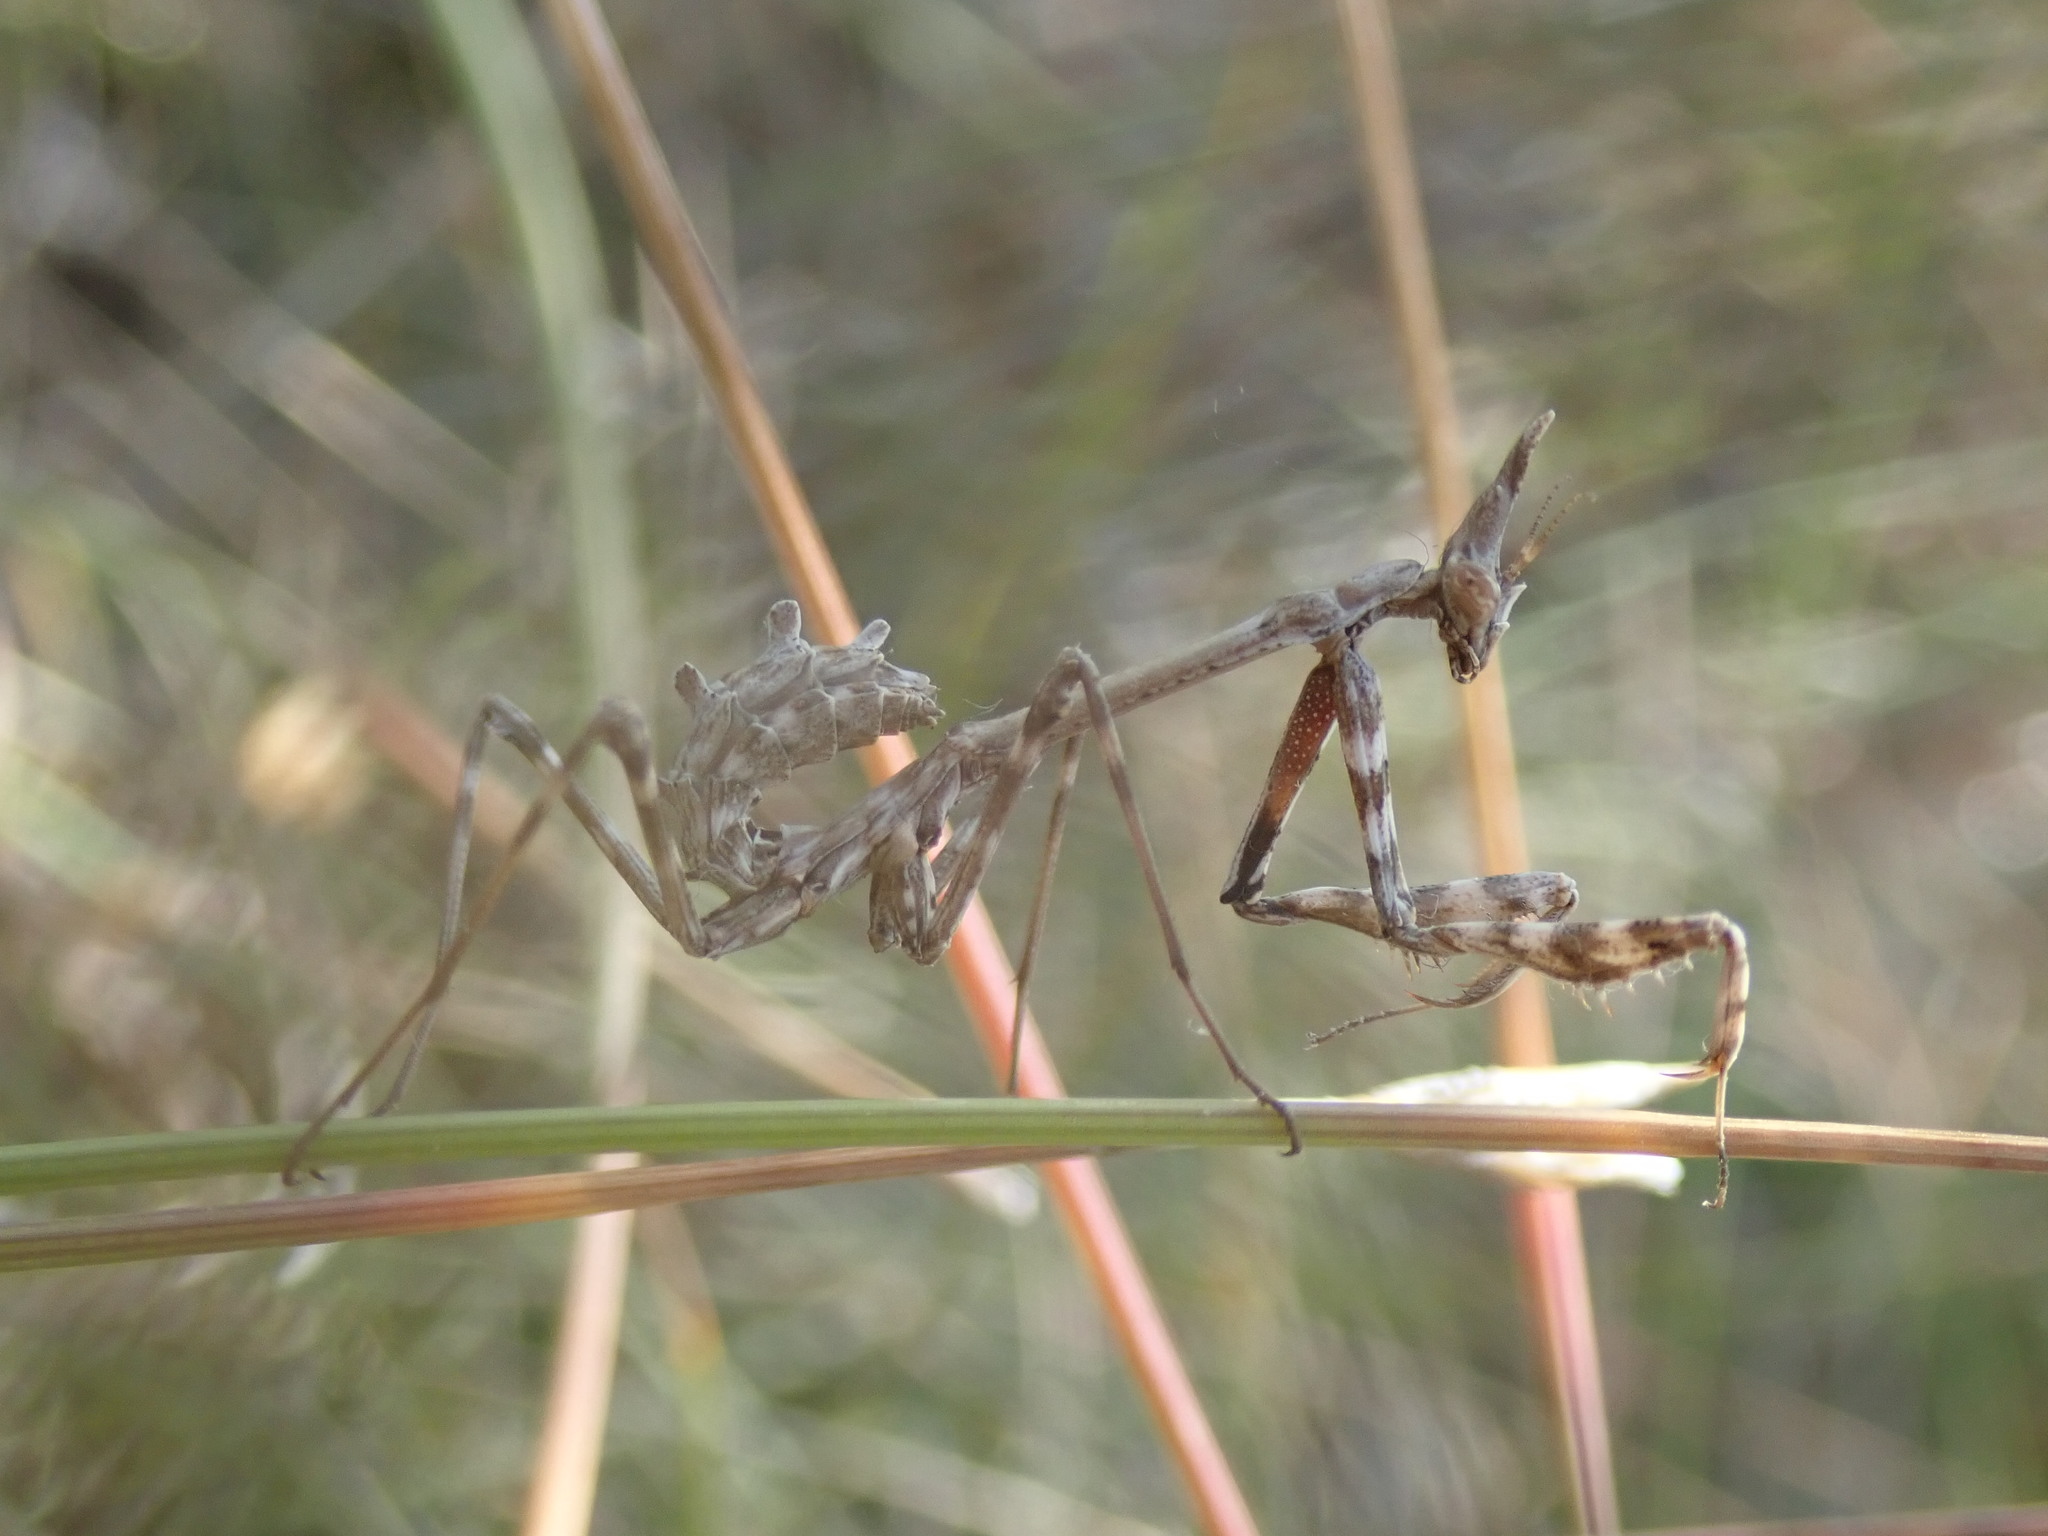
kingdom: Animalia
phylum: Arthropoda
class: Insecta
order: Mantodea
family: Empusidae
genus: Empusa
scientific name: Empusa pennata
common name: Conehead mantis
